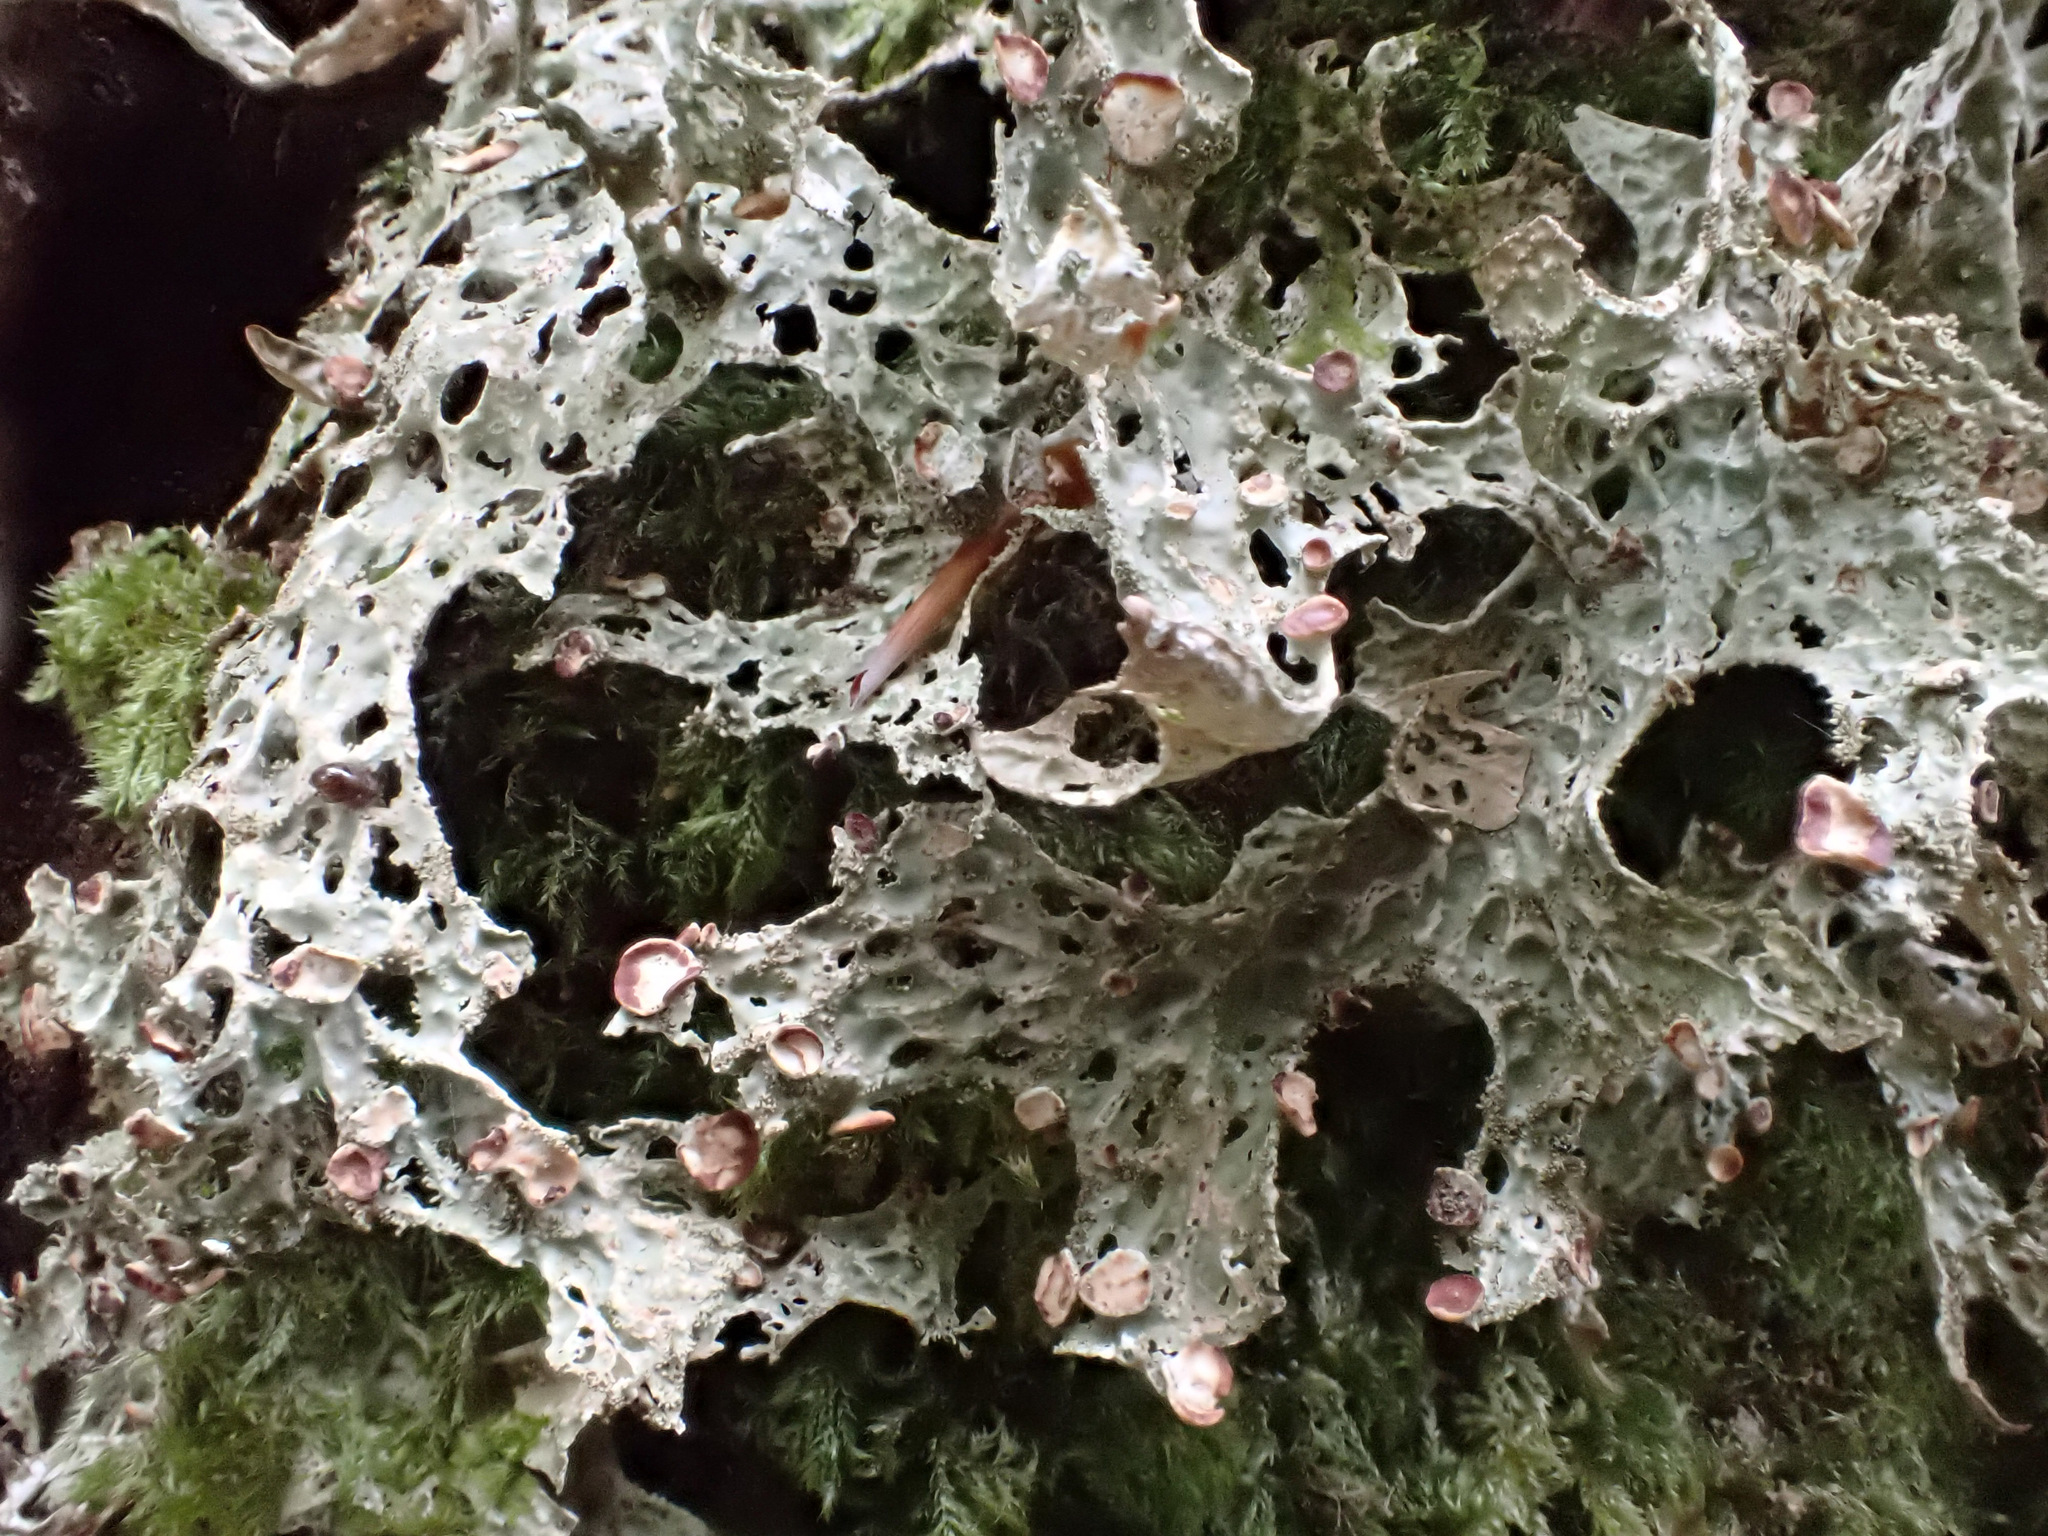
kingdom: Fungi
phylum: Ascomycota
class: Lecanoromycetes
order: Peltigerales
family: Lobariaceae
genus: Lobaria
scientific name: Lobaria pulmonaria
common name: Lungwort
